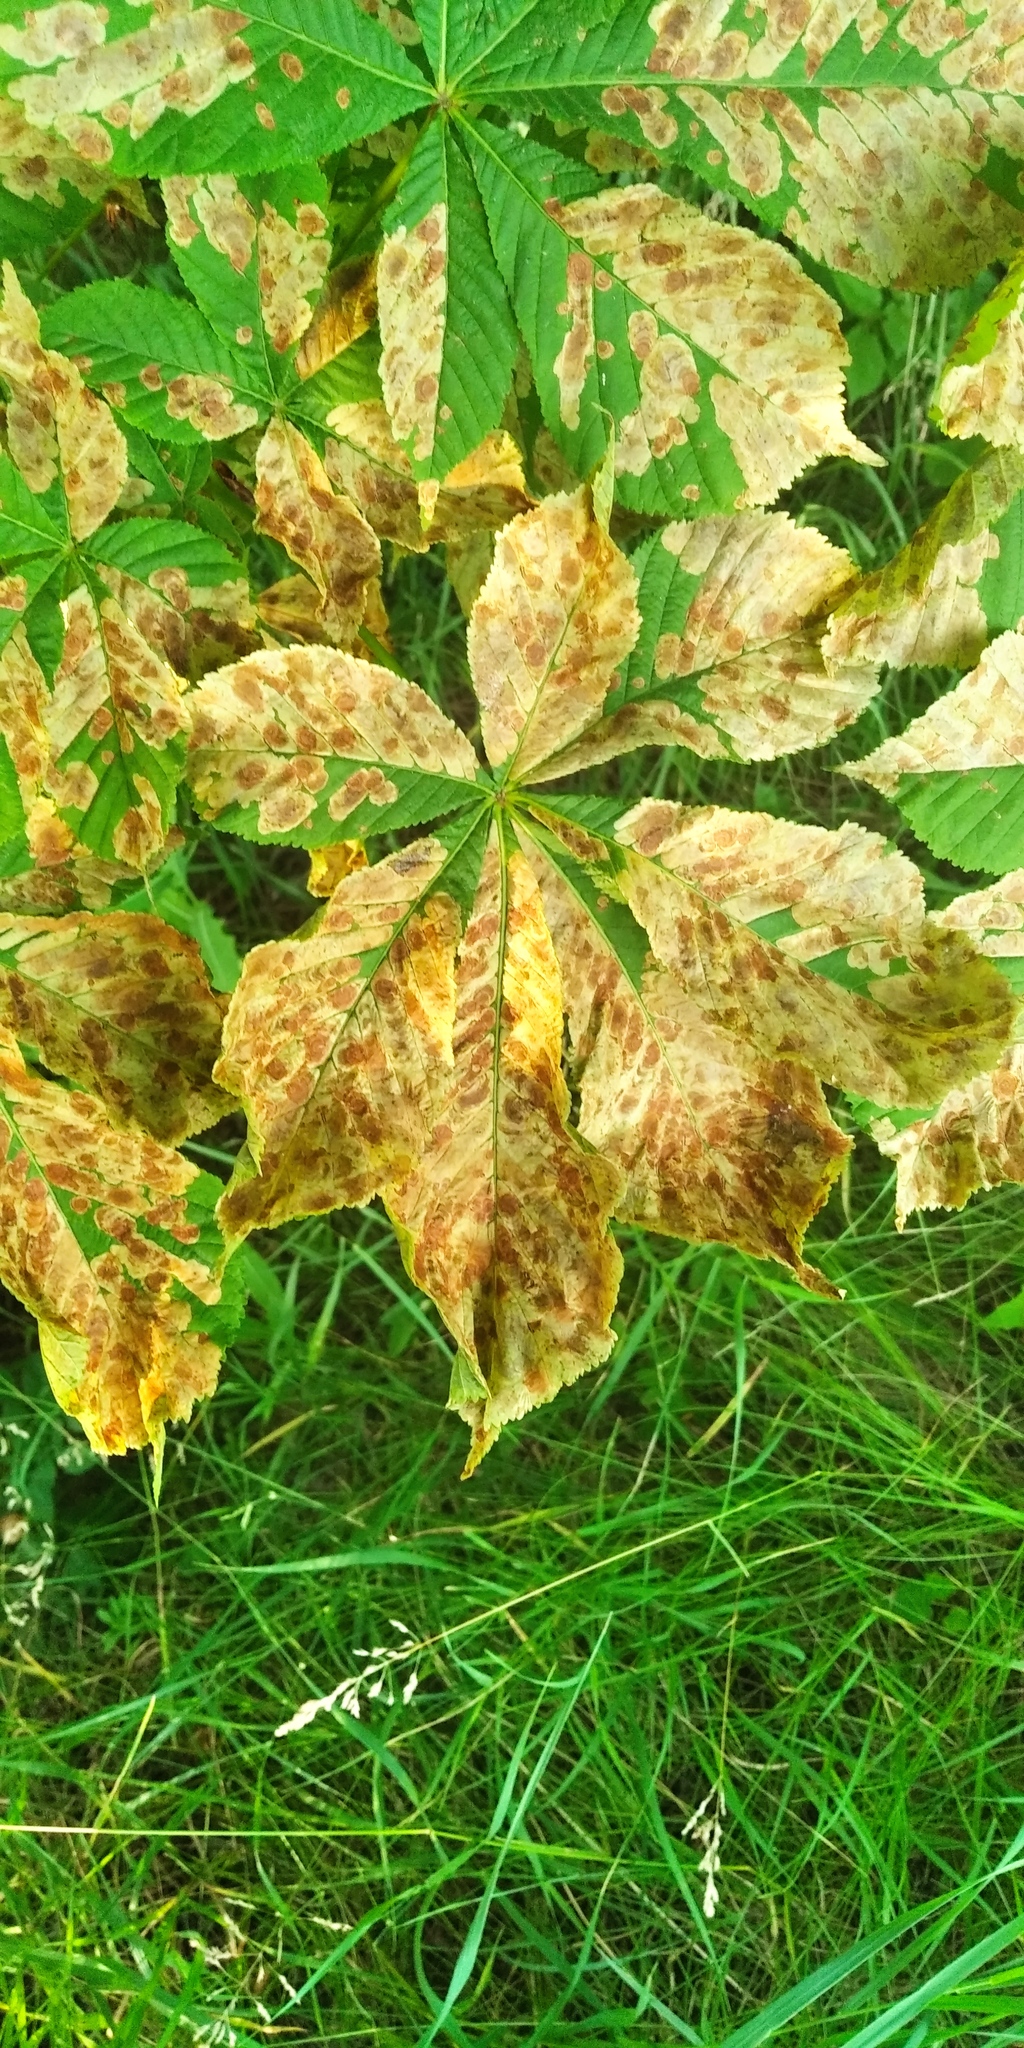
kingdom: Animalia
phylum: Arthropoda
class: Insecta
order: Lepidoptera
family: Gracillariidae
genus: Cameraria
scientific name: Cameraria ohridella
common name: Horse-chestnut leaf-miner
